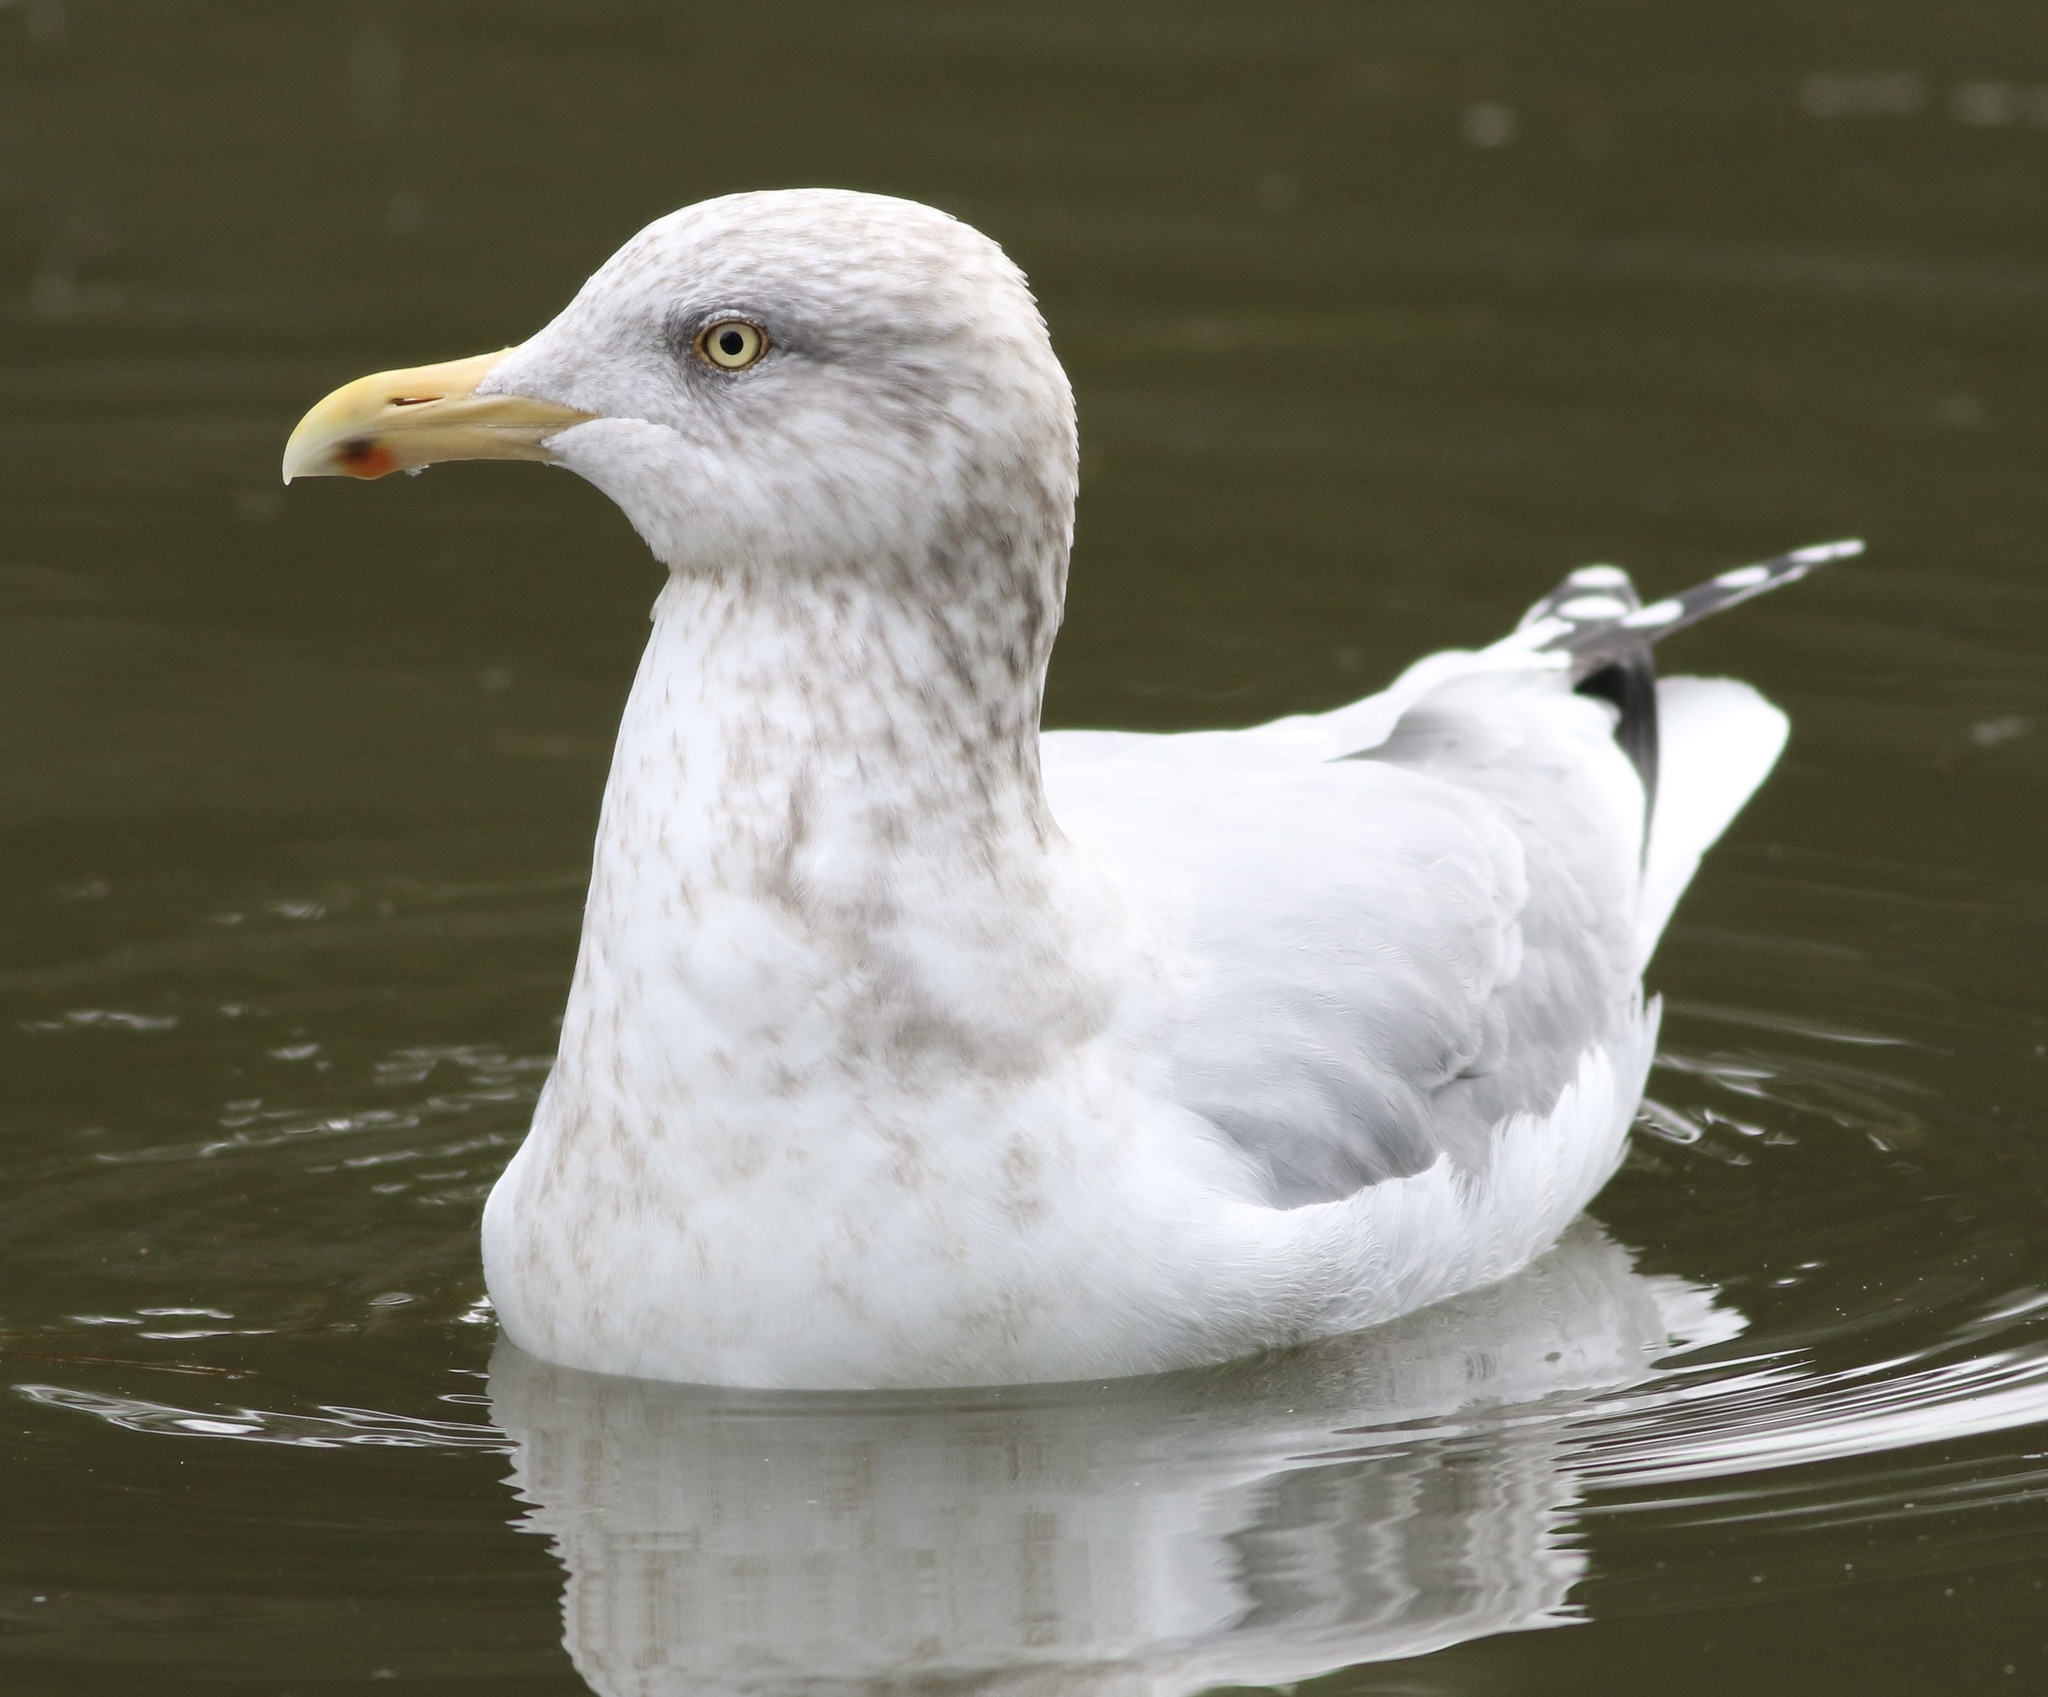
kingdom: Animalia
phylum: Chordata
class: Aves
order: Charadriiformes
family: Laridae
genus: Larus
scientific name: Larus argentatus
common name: Herring gull
